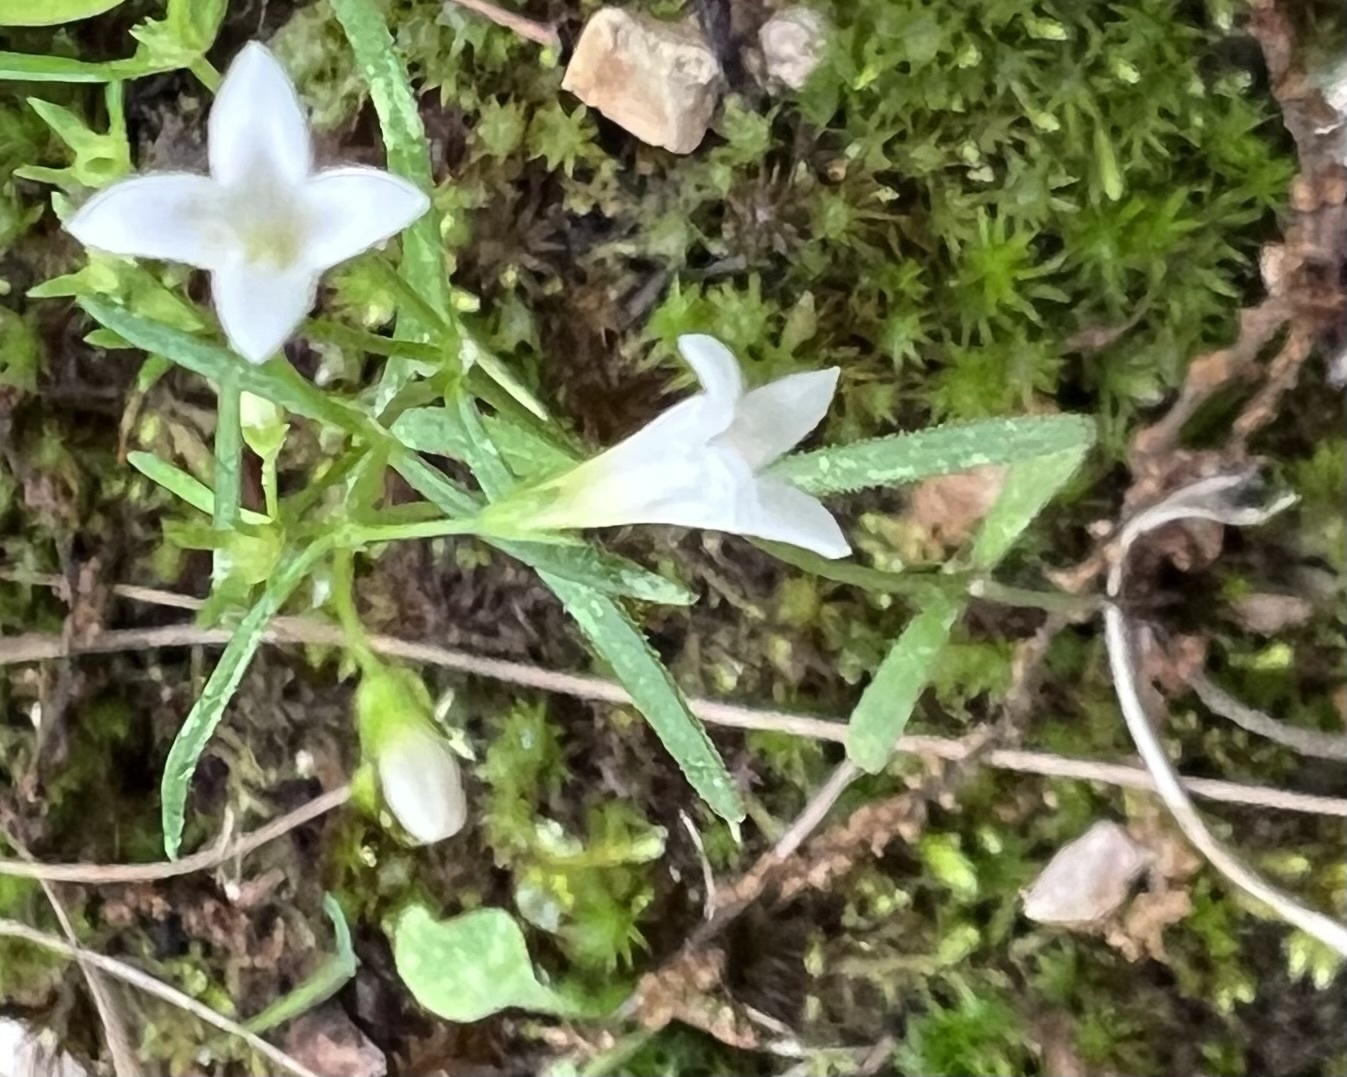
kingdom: Plantae
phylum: Tracheophyta
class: Magnoliopsida
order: Gentianales
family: Rubiaceae
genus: Houstonia
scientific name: Houstonia longifolia
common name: Long-leaved bluets
